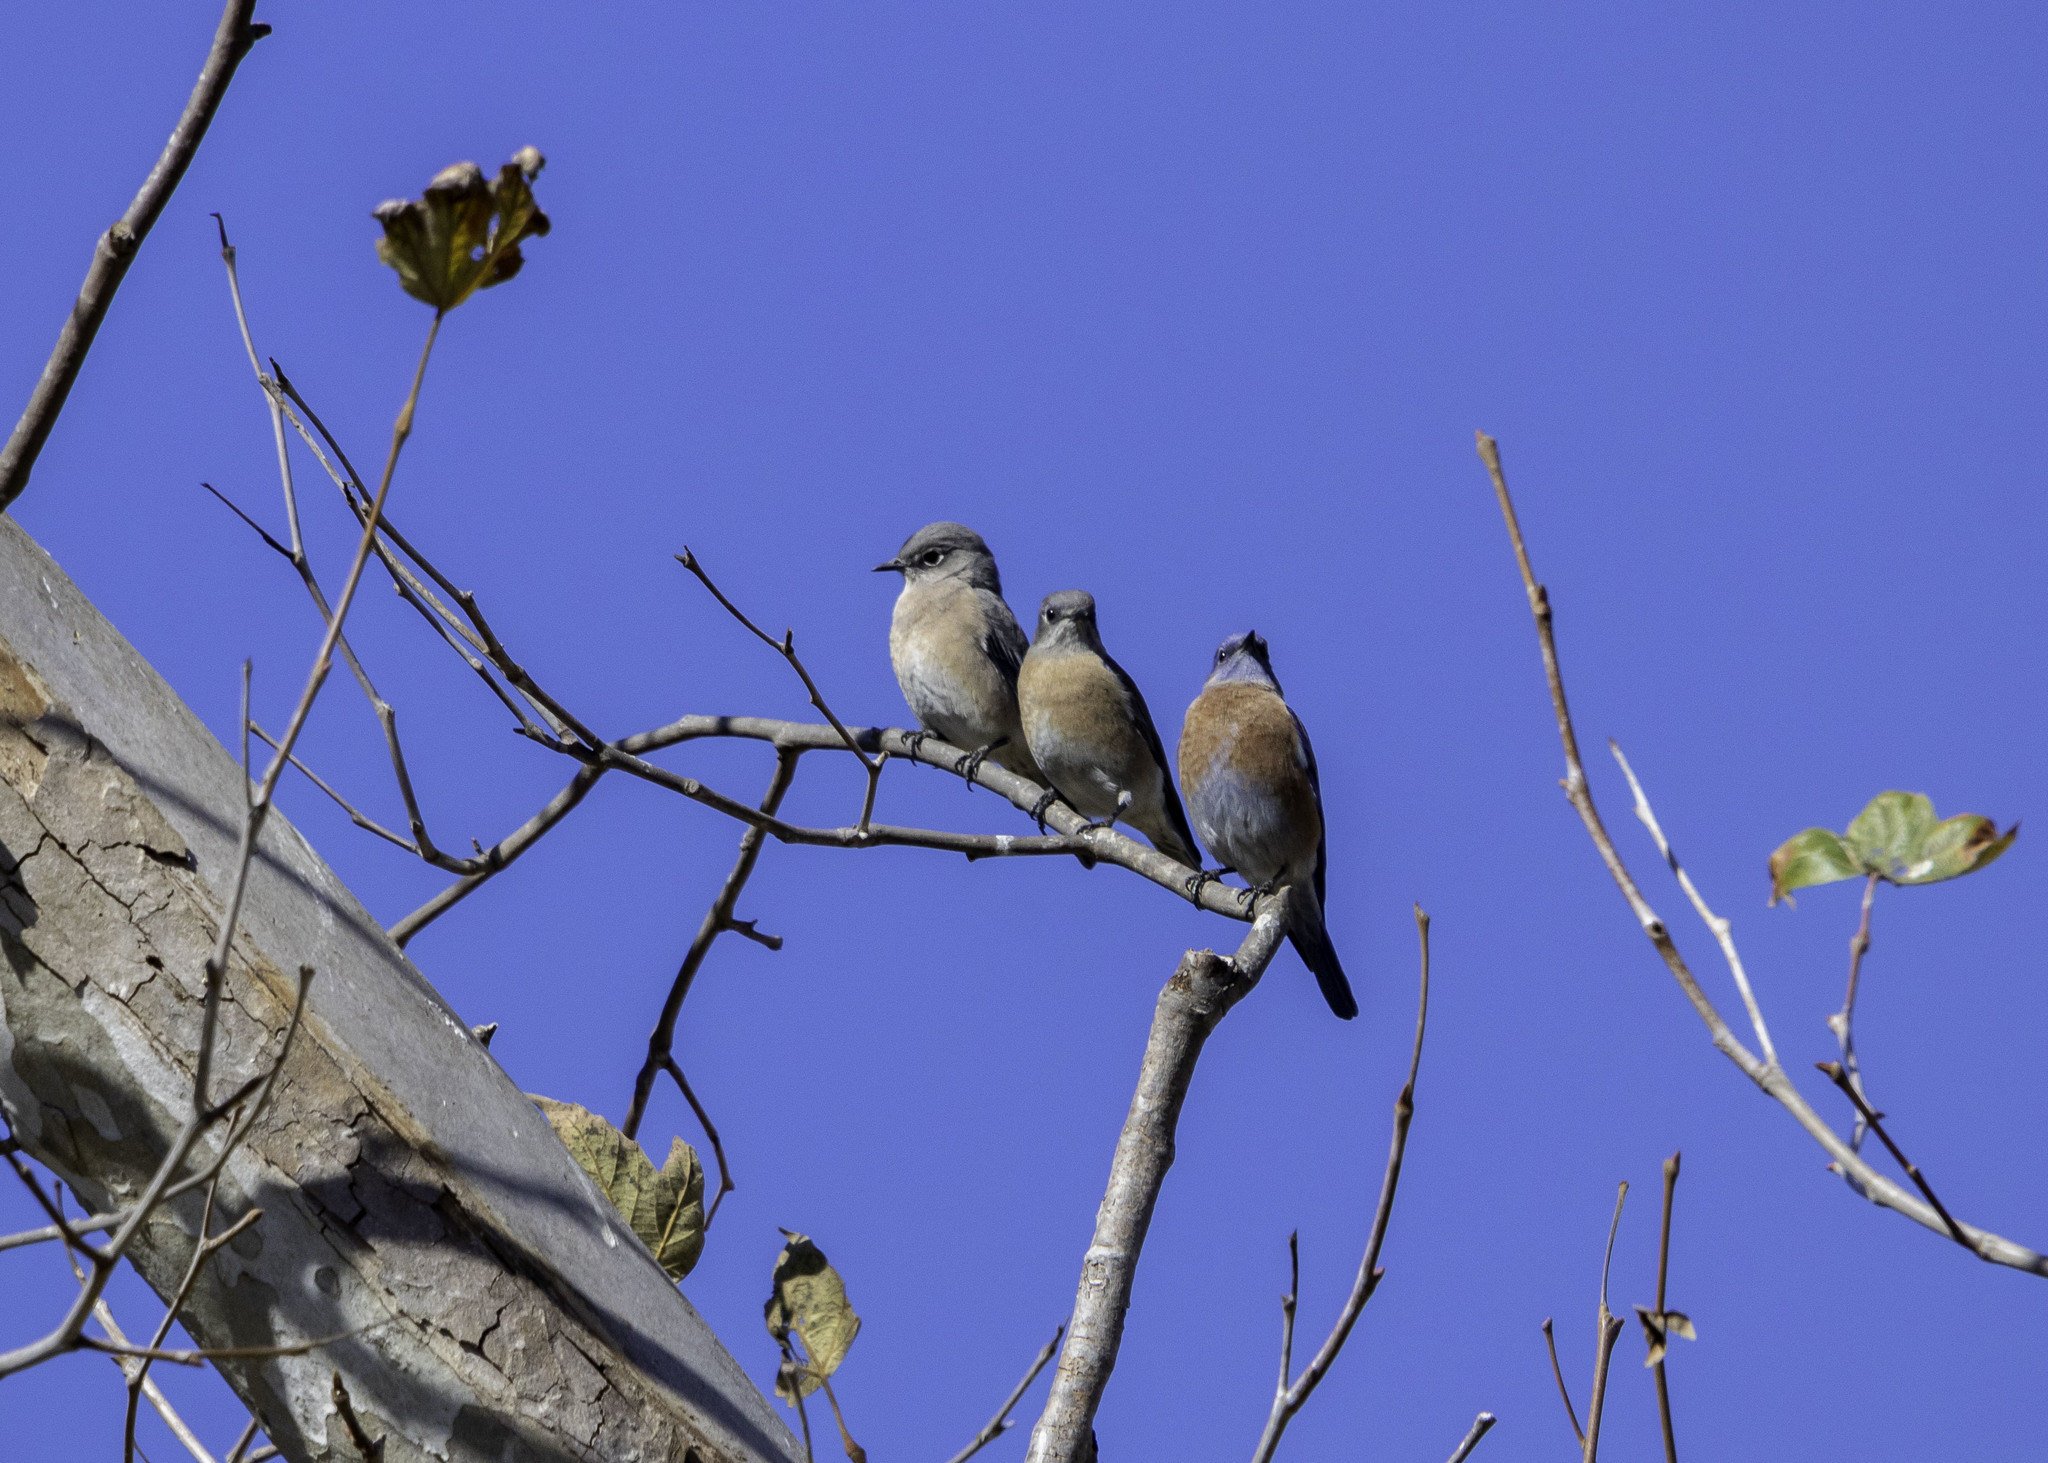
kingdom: Animalia
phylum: Chordata
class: Aves
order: Passeriformes
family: Turdidae
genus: Sialia
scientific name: Sialia mexicana
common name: Western bluebird
